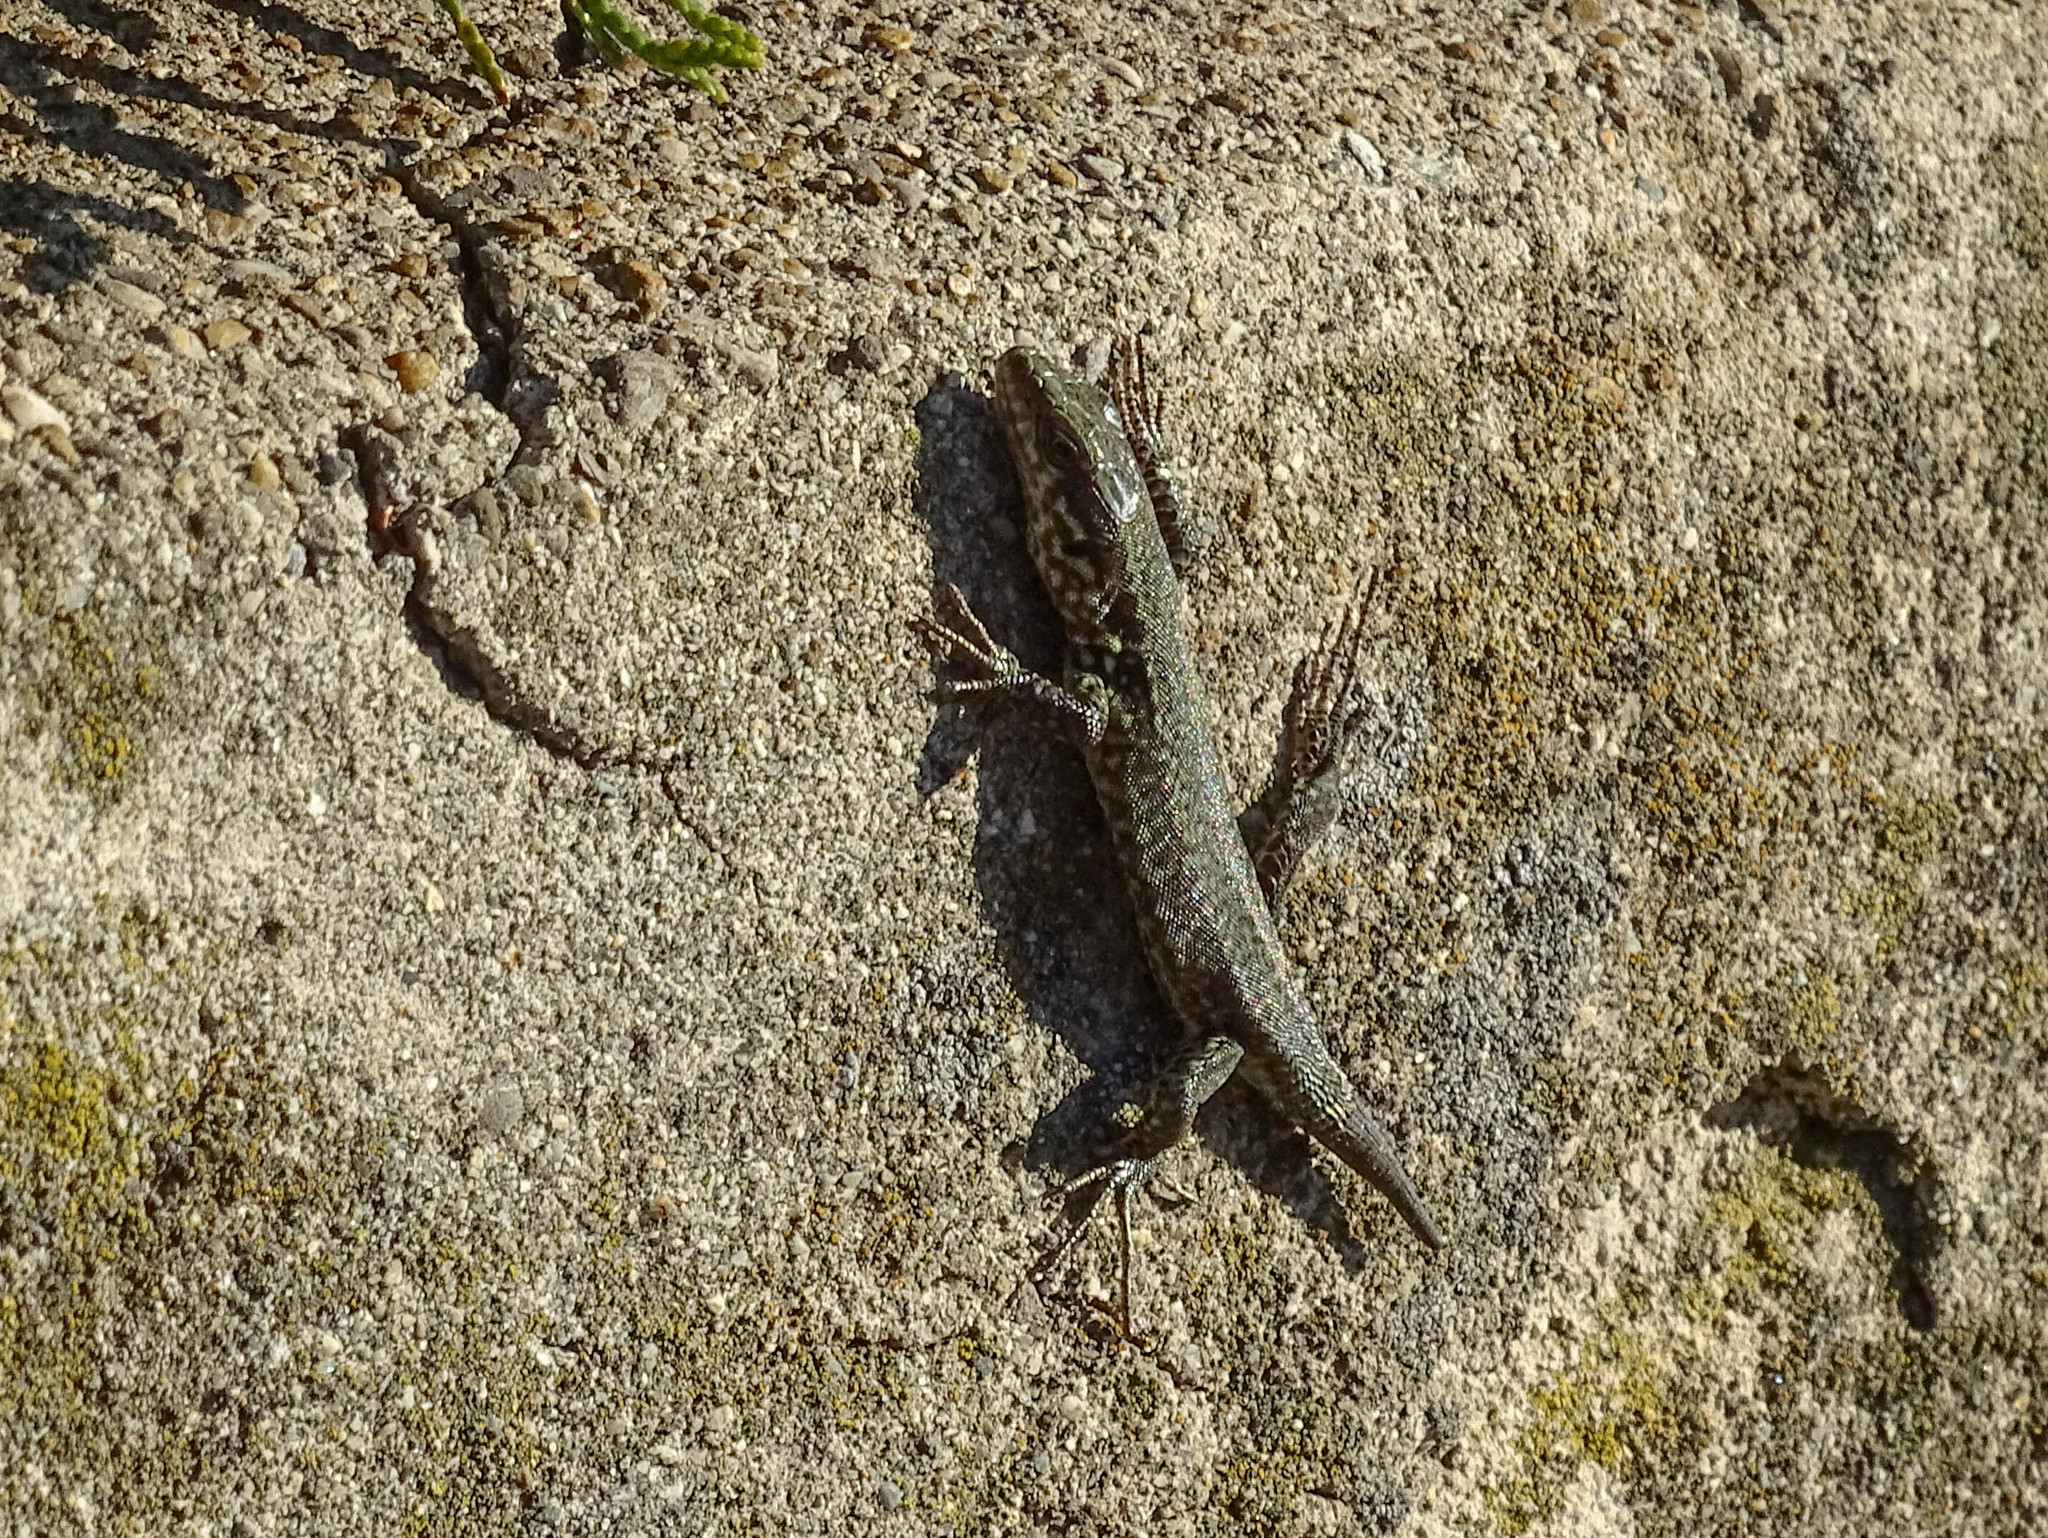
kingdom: Animalia
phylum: Chordata
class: Squamata
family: Lacertidae
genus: Podarcis
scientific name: Podarcis muralis
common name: Common wall lizard
